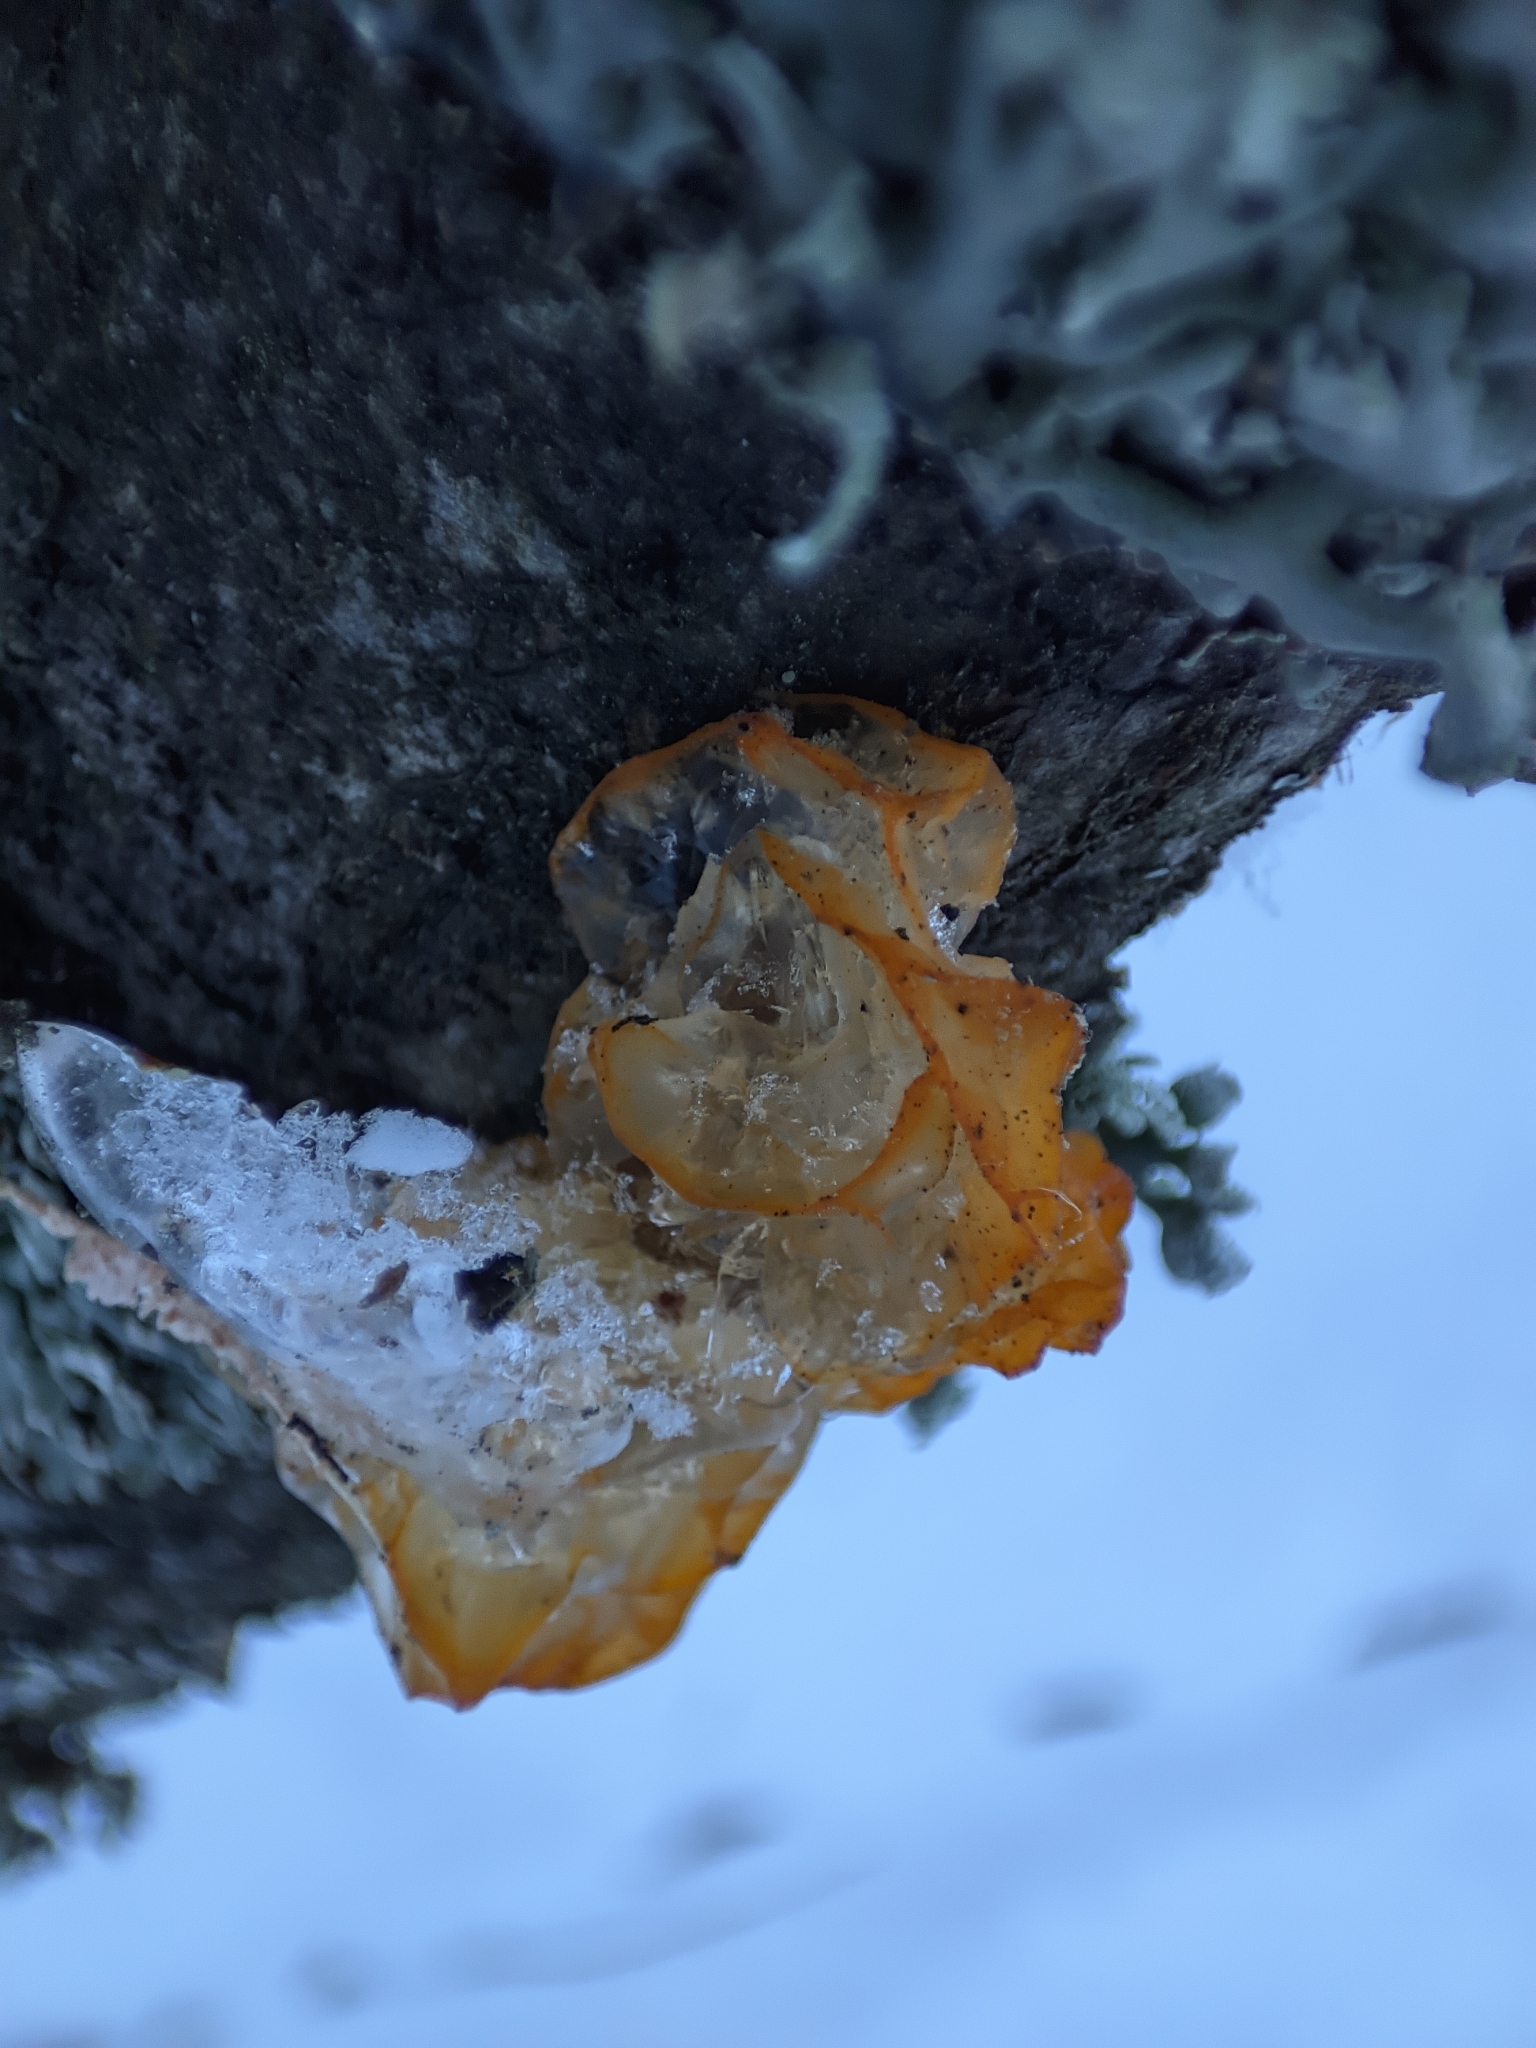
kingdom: Fungi
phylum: Basidiomycota
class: Tremellomycetes
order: Tremellales
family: Tremellaceae
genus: Tremella
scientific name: Tremella mesenterica
